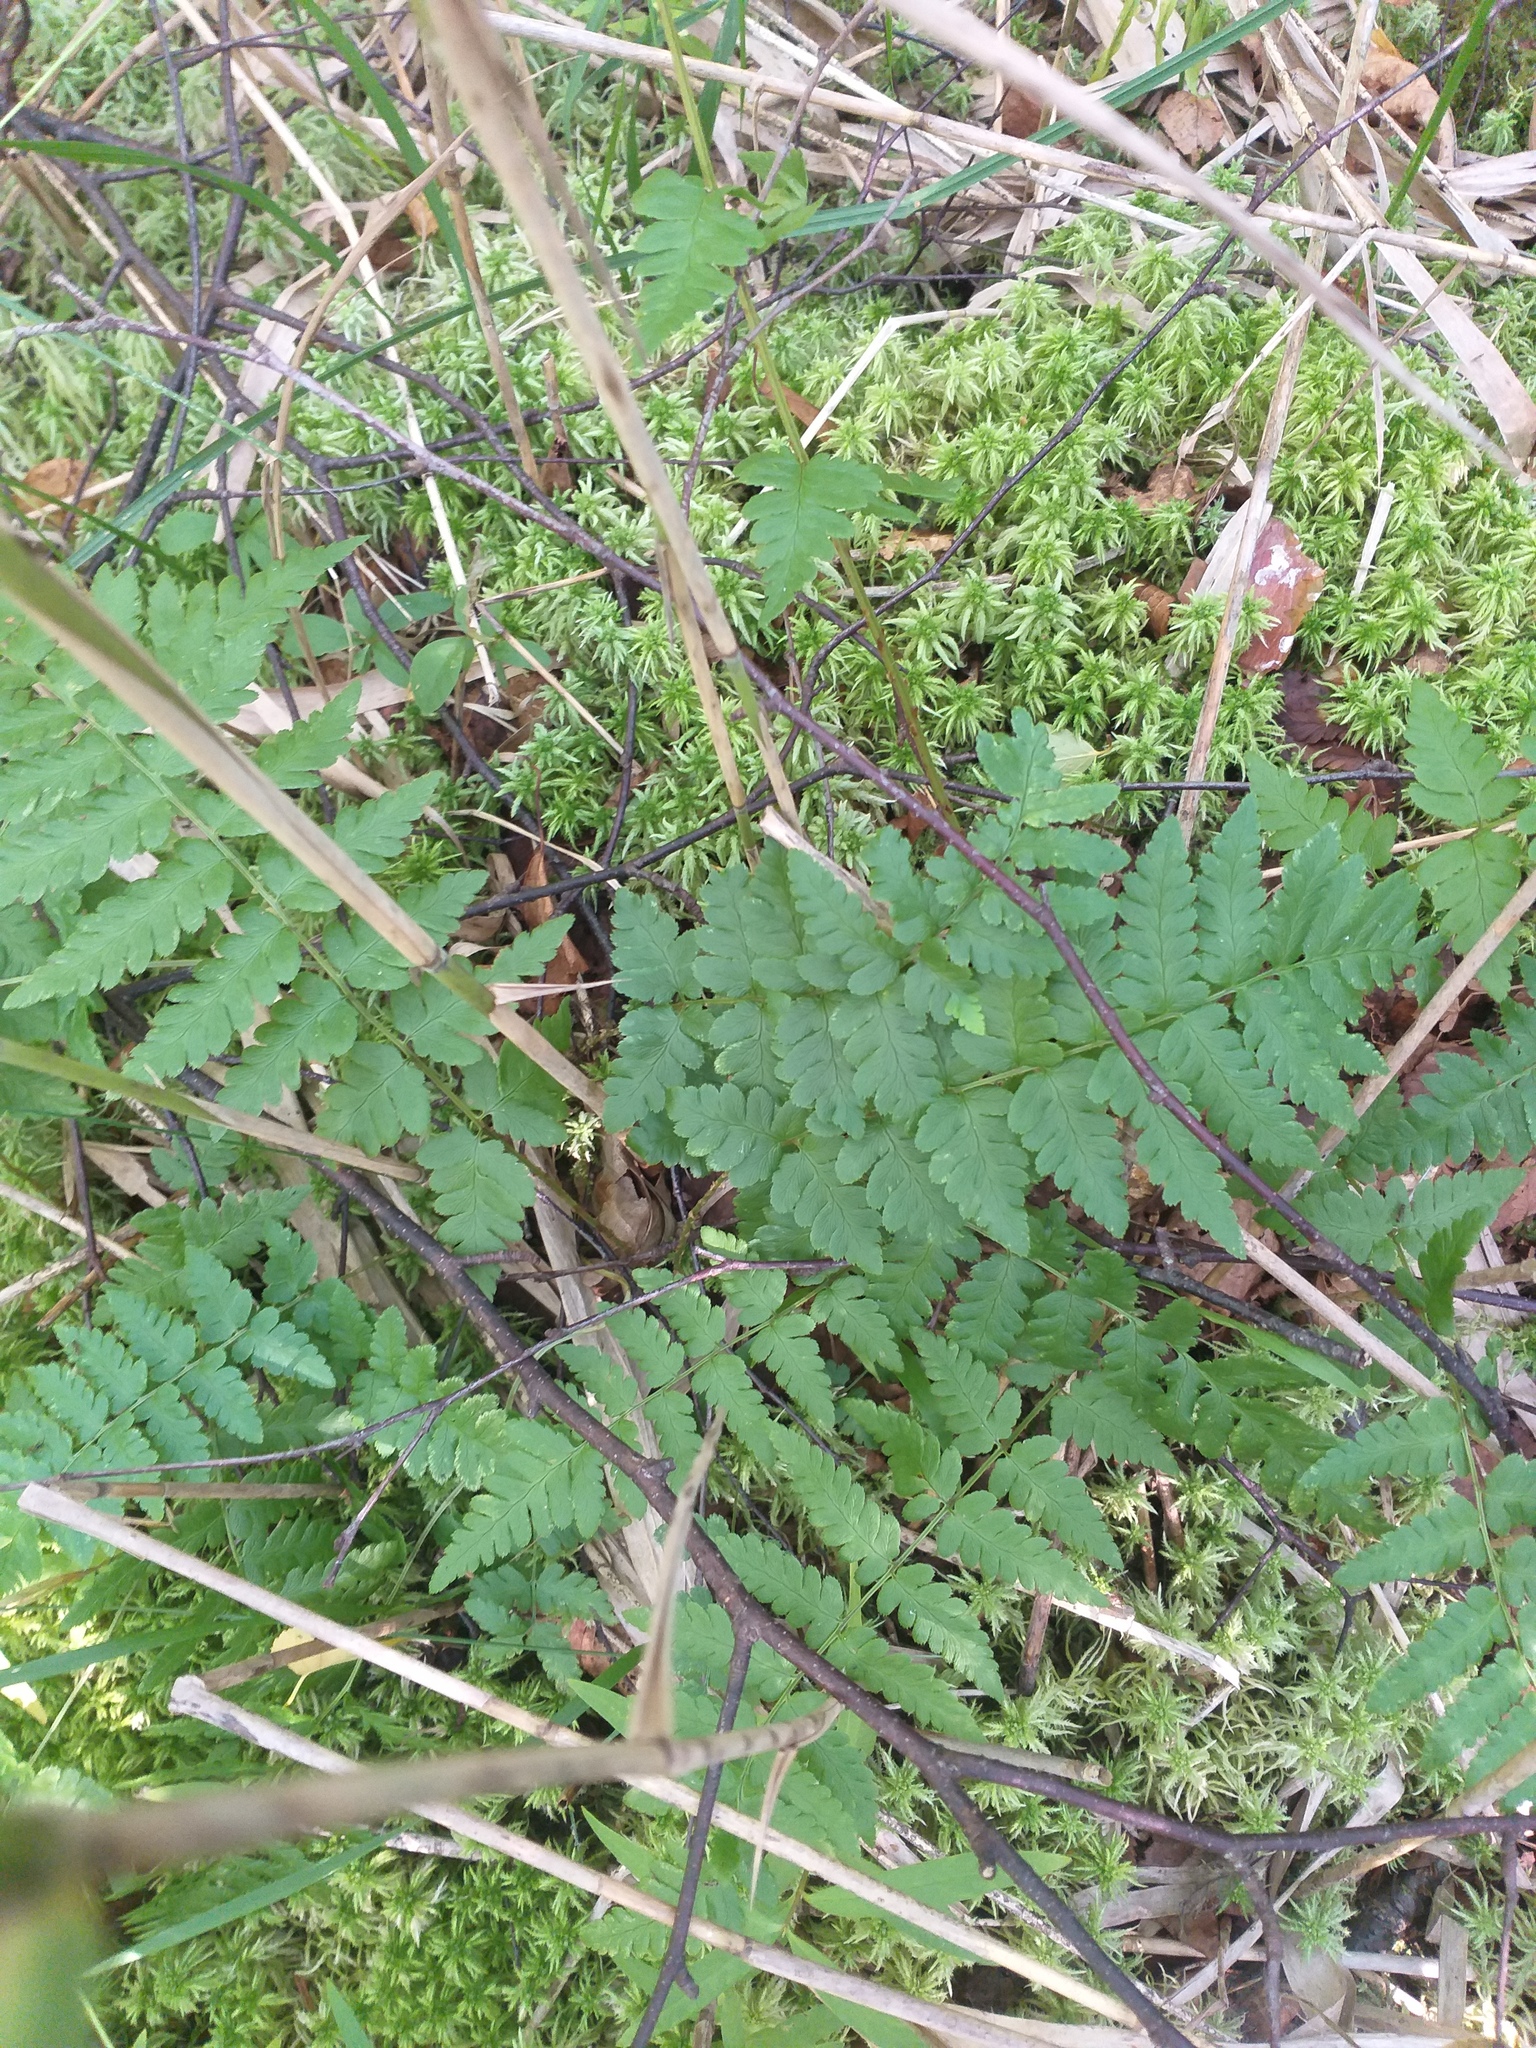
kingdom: Plantae
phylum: Tracheophyta
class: Polypodiopsida
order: Polypodiales
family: Dryopteridaceae
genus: Dryopteris
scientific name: Dryopteris cristata
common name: Crested wood fern
